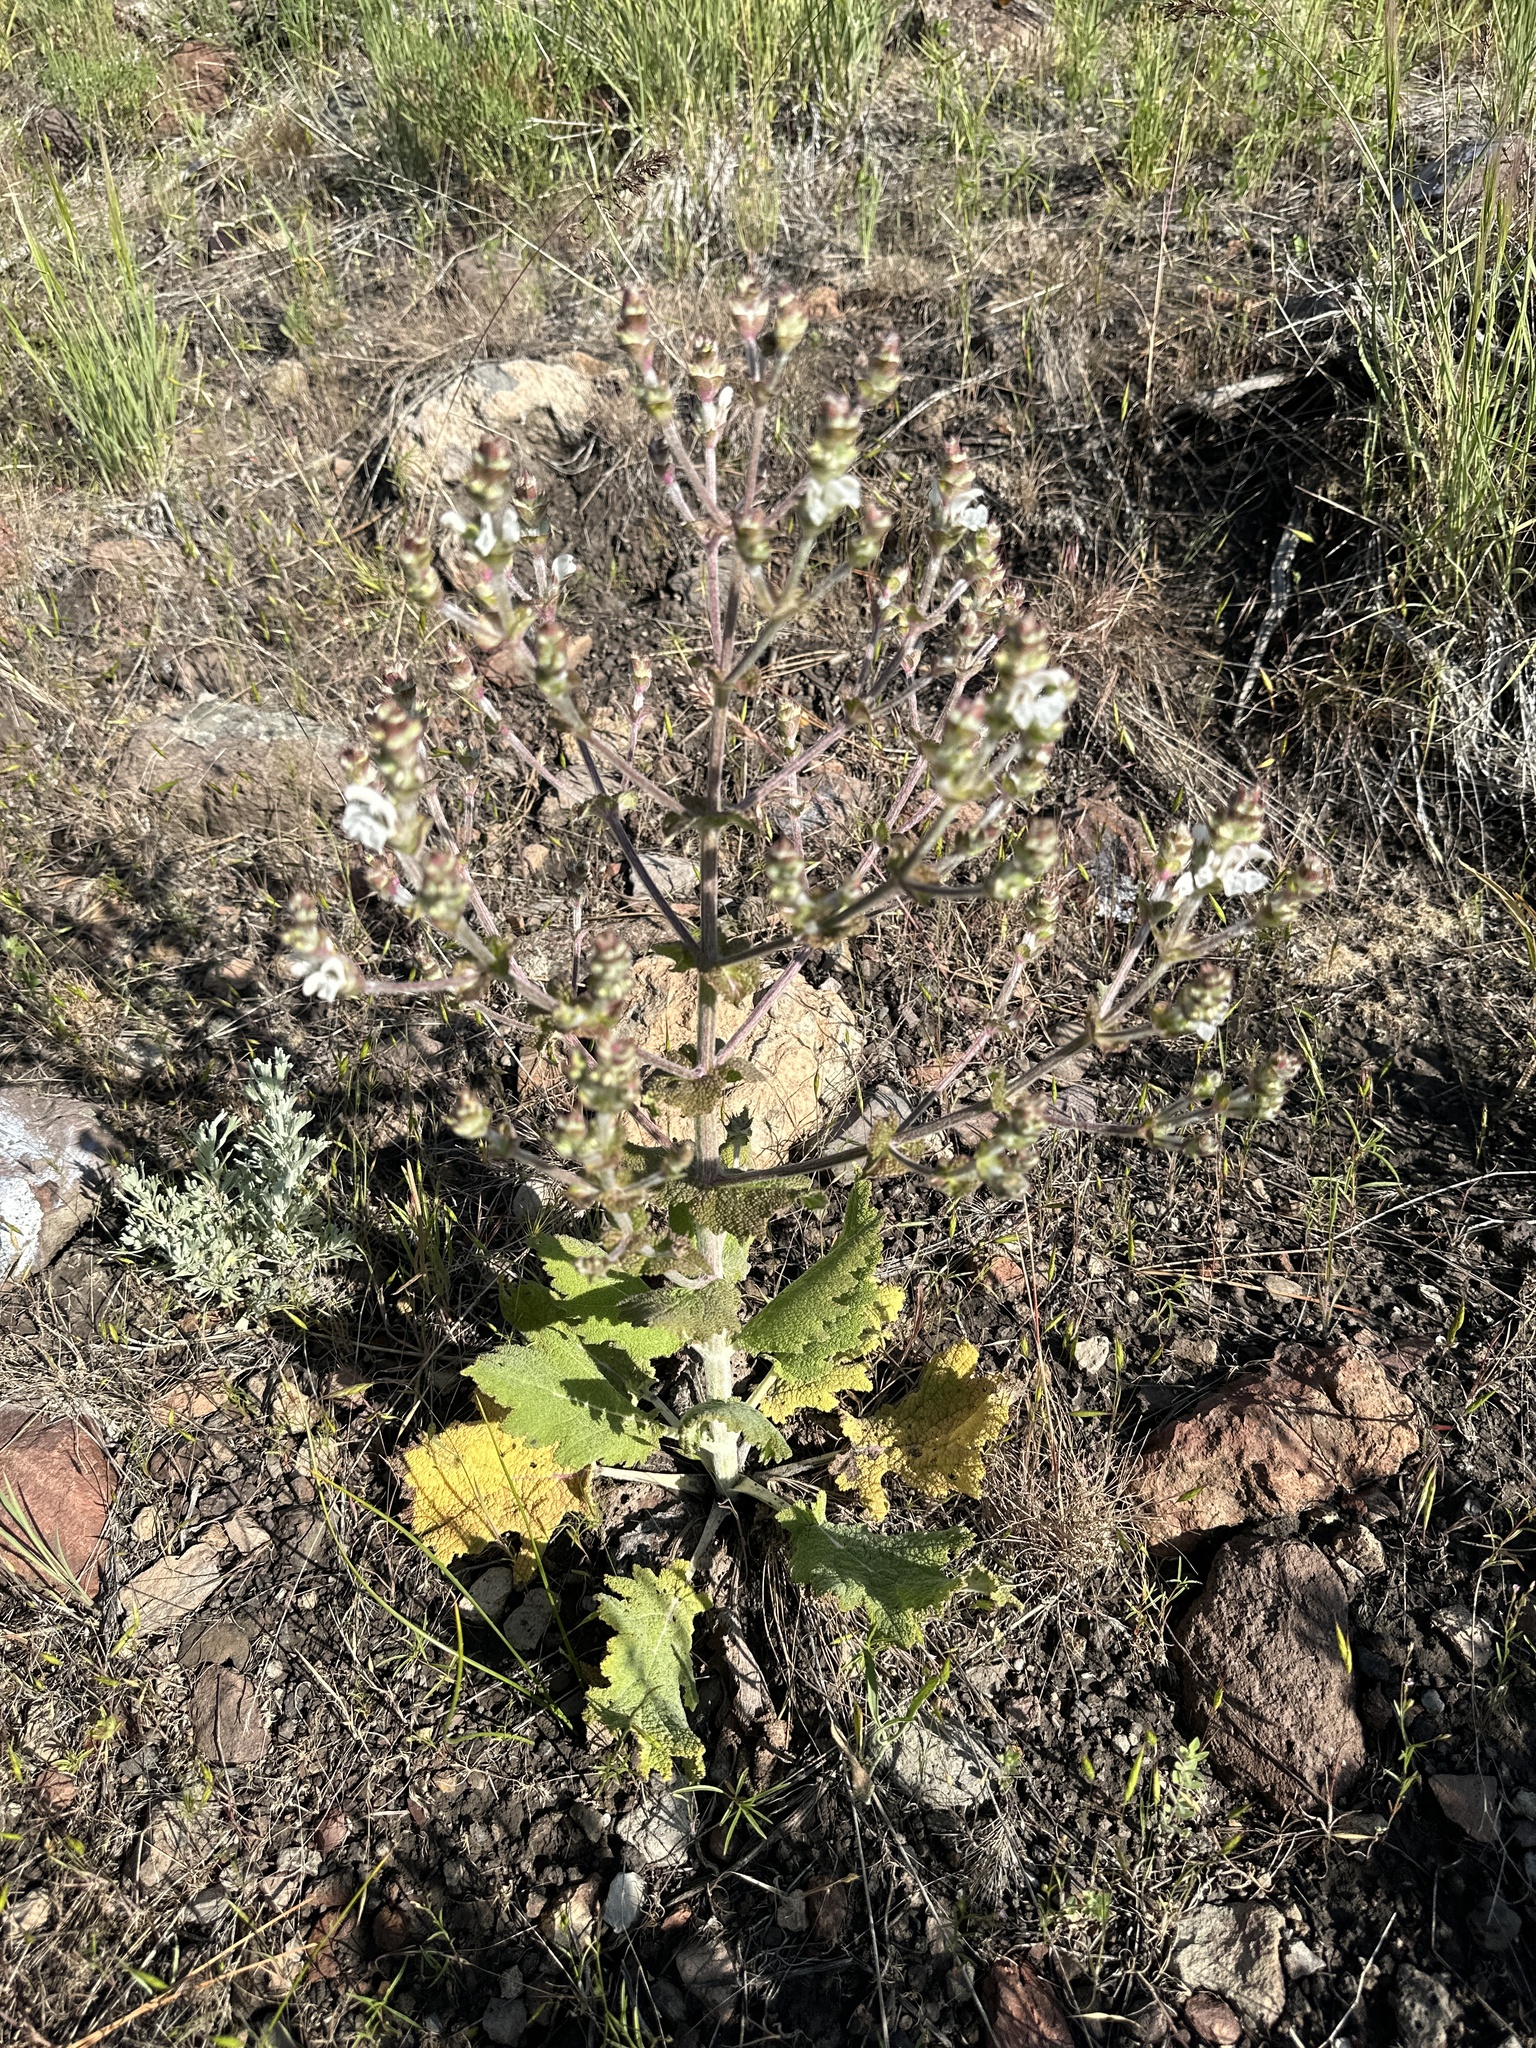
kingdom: Plantae
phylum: Tracheophyta
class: Magnoliopsida
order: Lamiales
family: Lamiaceae
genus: Salvia
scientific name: Salvia aethiopis
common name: Mediterranean sage
